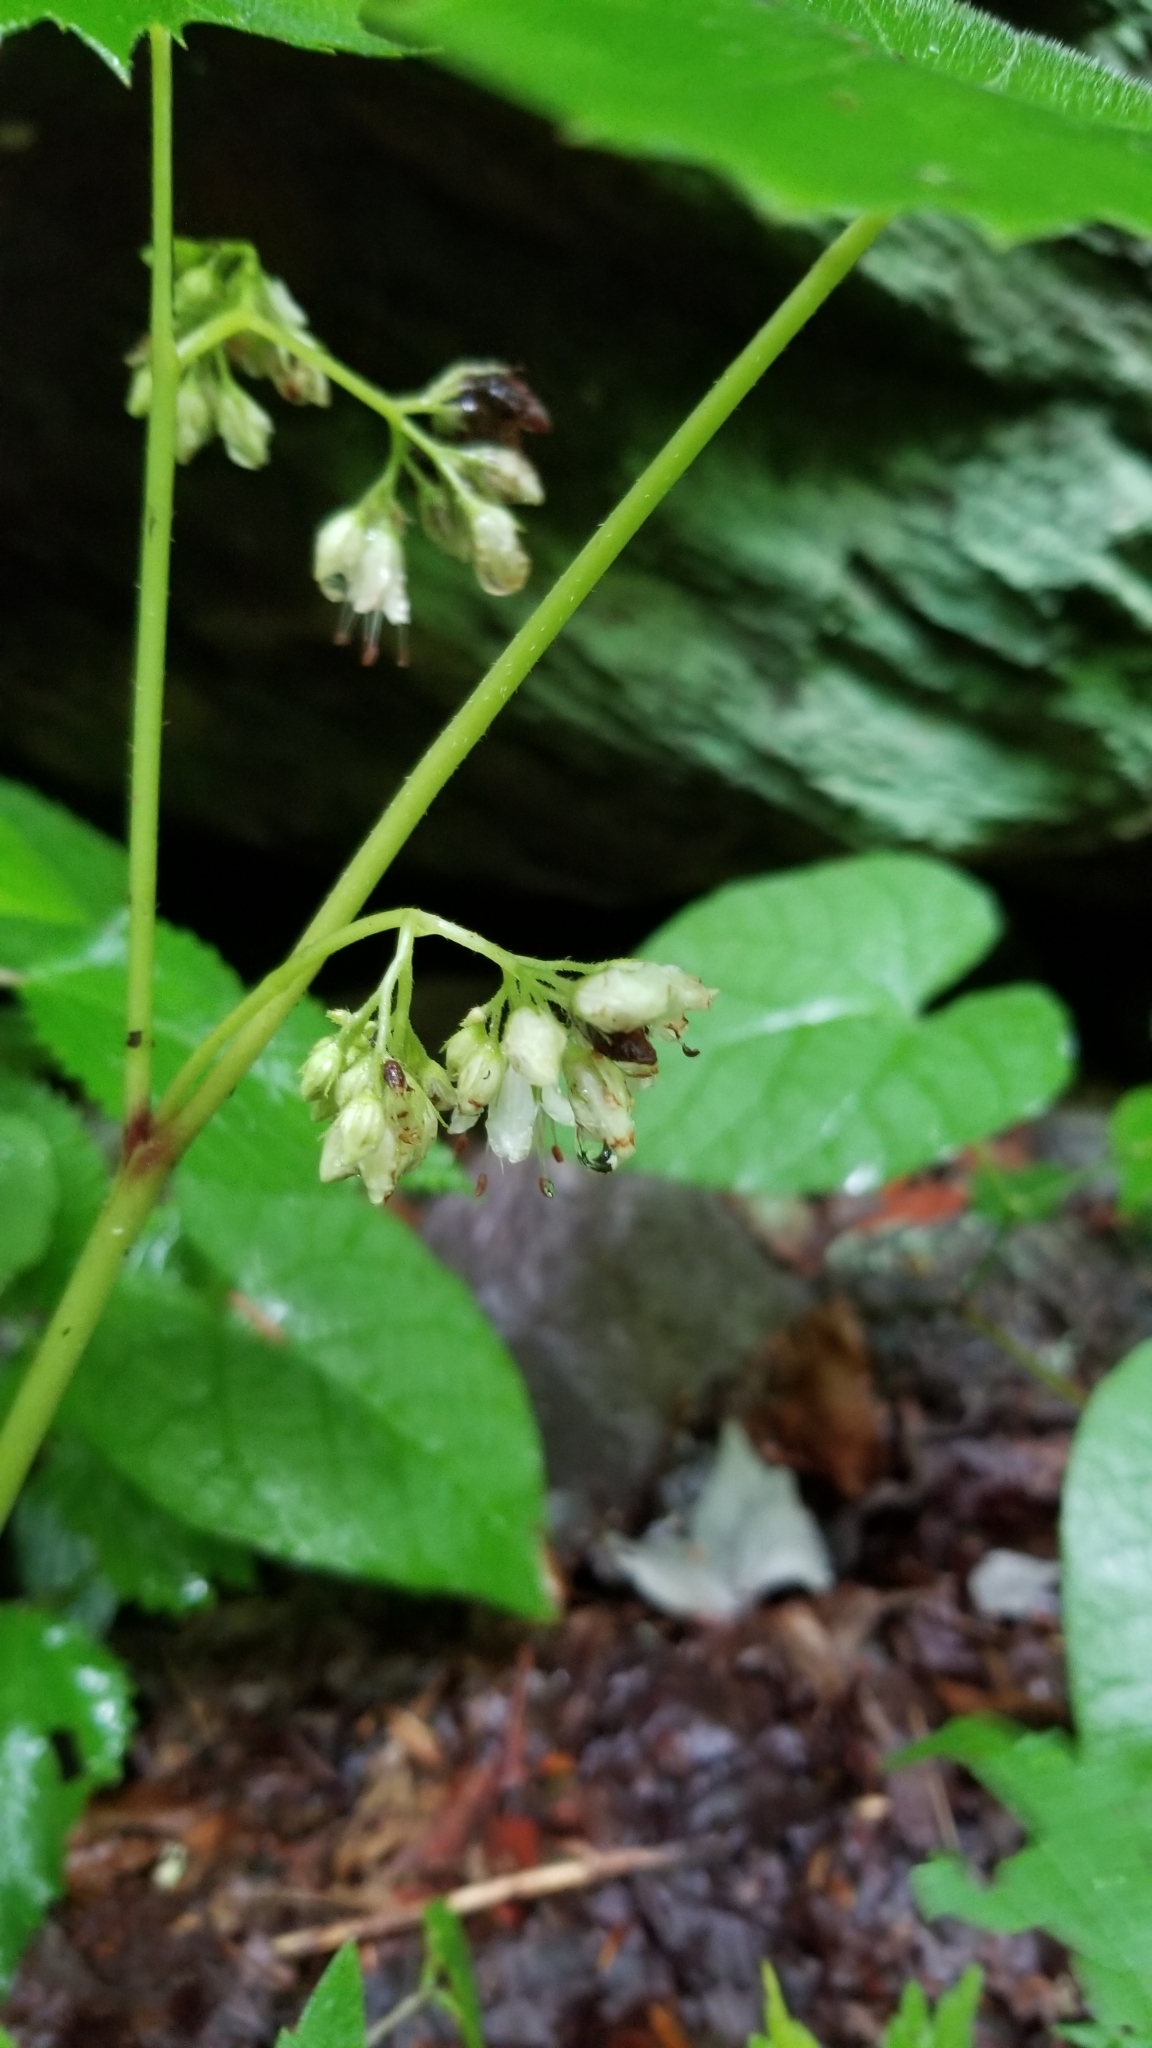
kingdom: Plantae
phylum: Tracheophyta
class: Magnoliopsida
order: Boraginales
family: Hydrophyllaceae
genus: Hydrophyllum
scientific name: Hydrophyllum canadense
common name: Canada waterleaf
